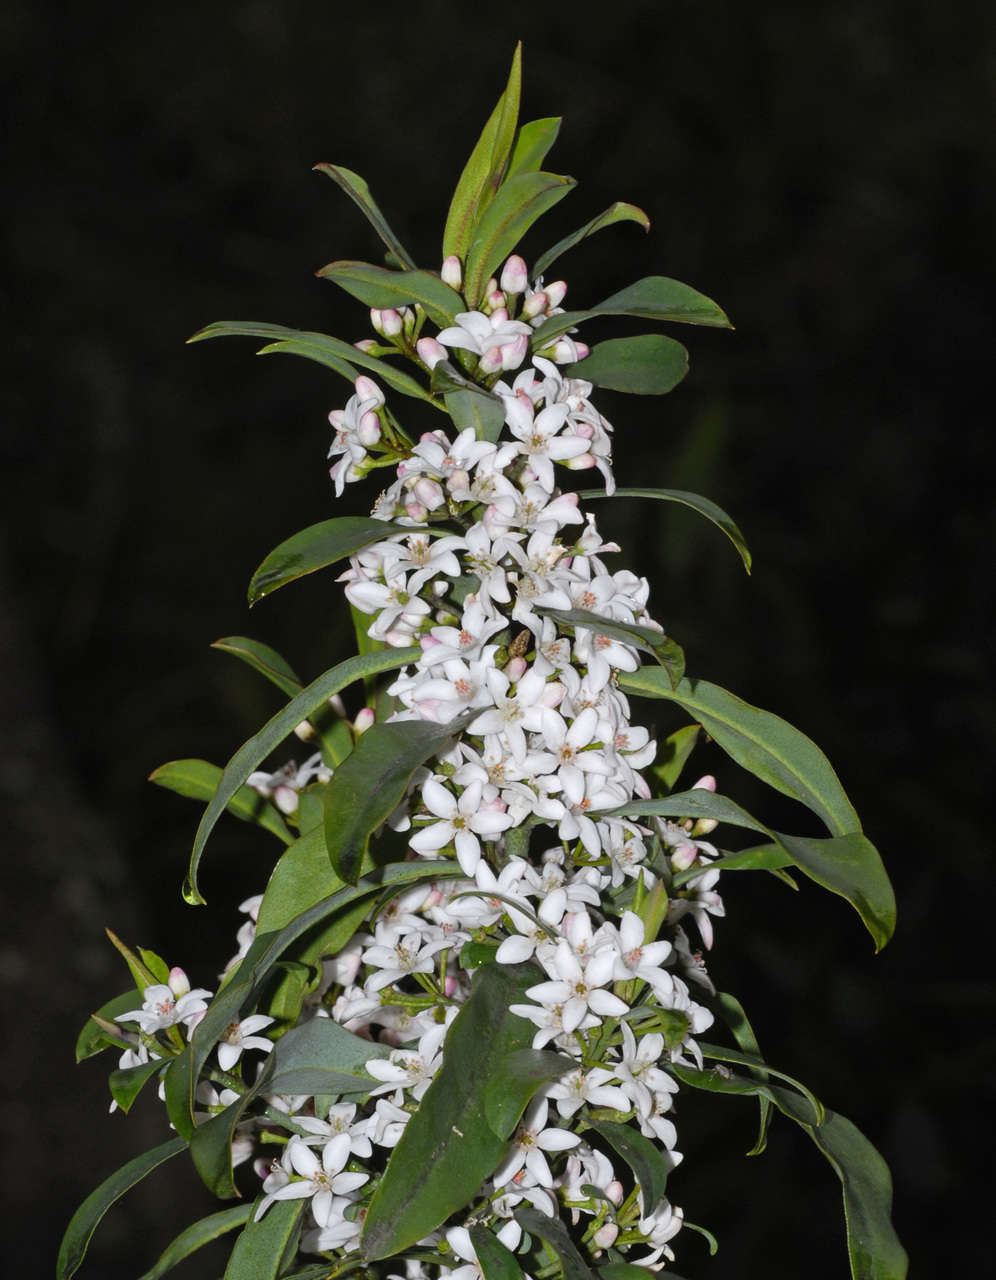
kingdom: Plantae
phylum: Tracheophyta
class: Magnoliopsida
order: Sapindales
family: Rutaceae
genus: Philotheca
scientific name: Philotheca myoporoides
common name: Longleaf waxflower
